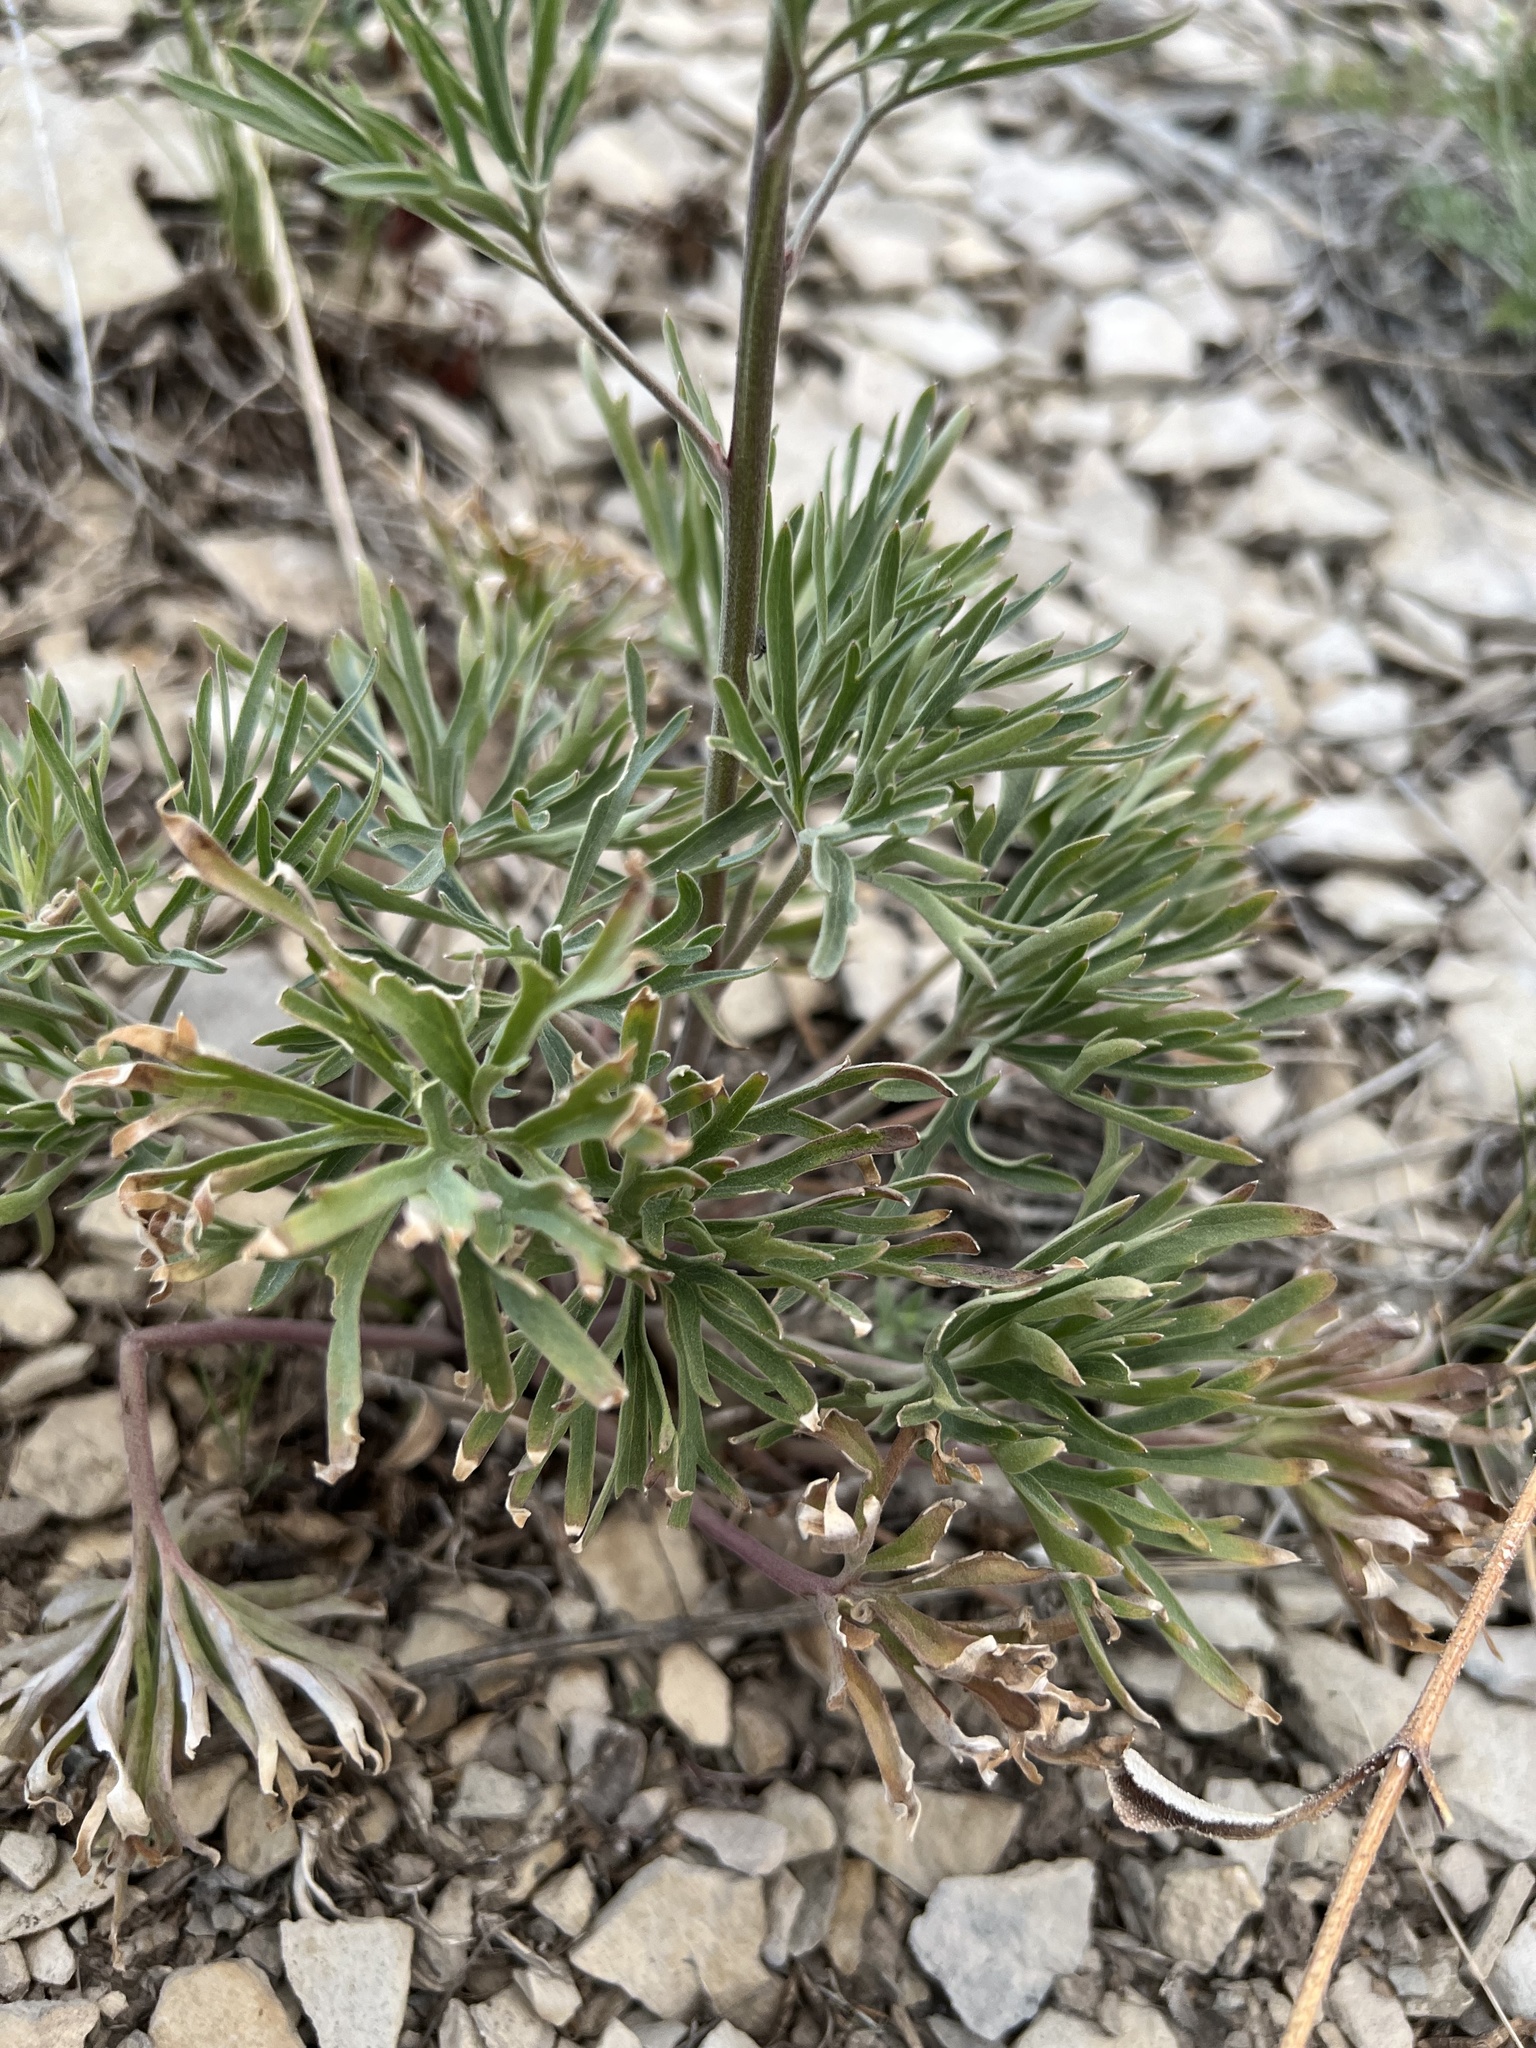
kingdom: Plantae
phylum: Tracheophyta
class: Magnoliopsida
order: Ranunculales
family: Ranunculaceae
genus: Delphinium
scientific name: Delphinium nuttallianum
